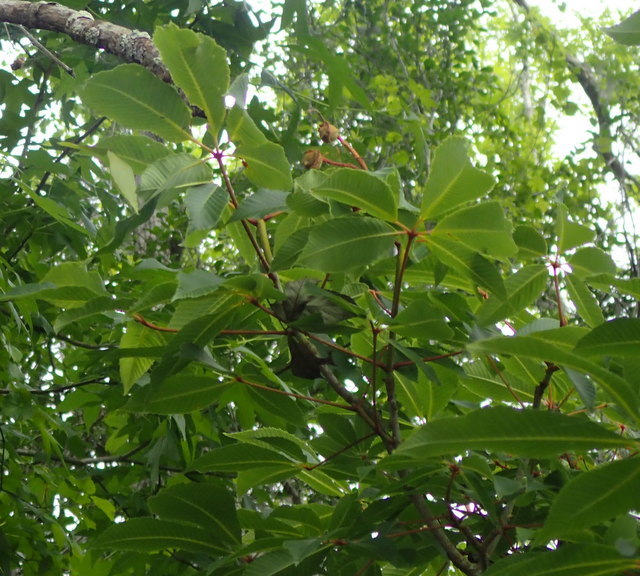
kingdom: Plantae
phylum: Tracheophyta
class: Magnoliopsida
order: Sapindales
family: Sapindaceae
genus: Aesculus
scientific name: Aesculus pavia
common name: Red buckeye
